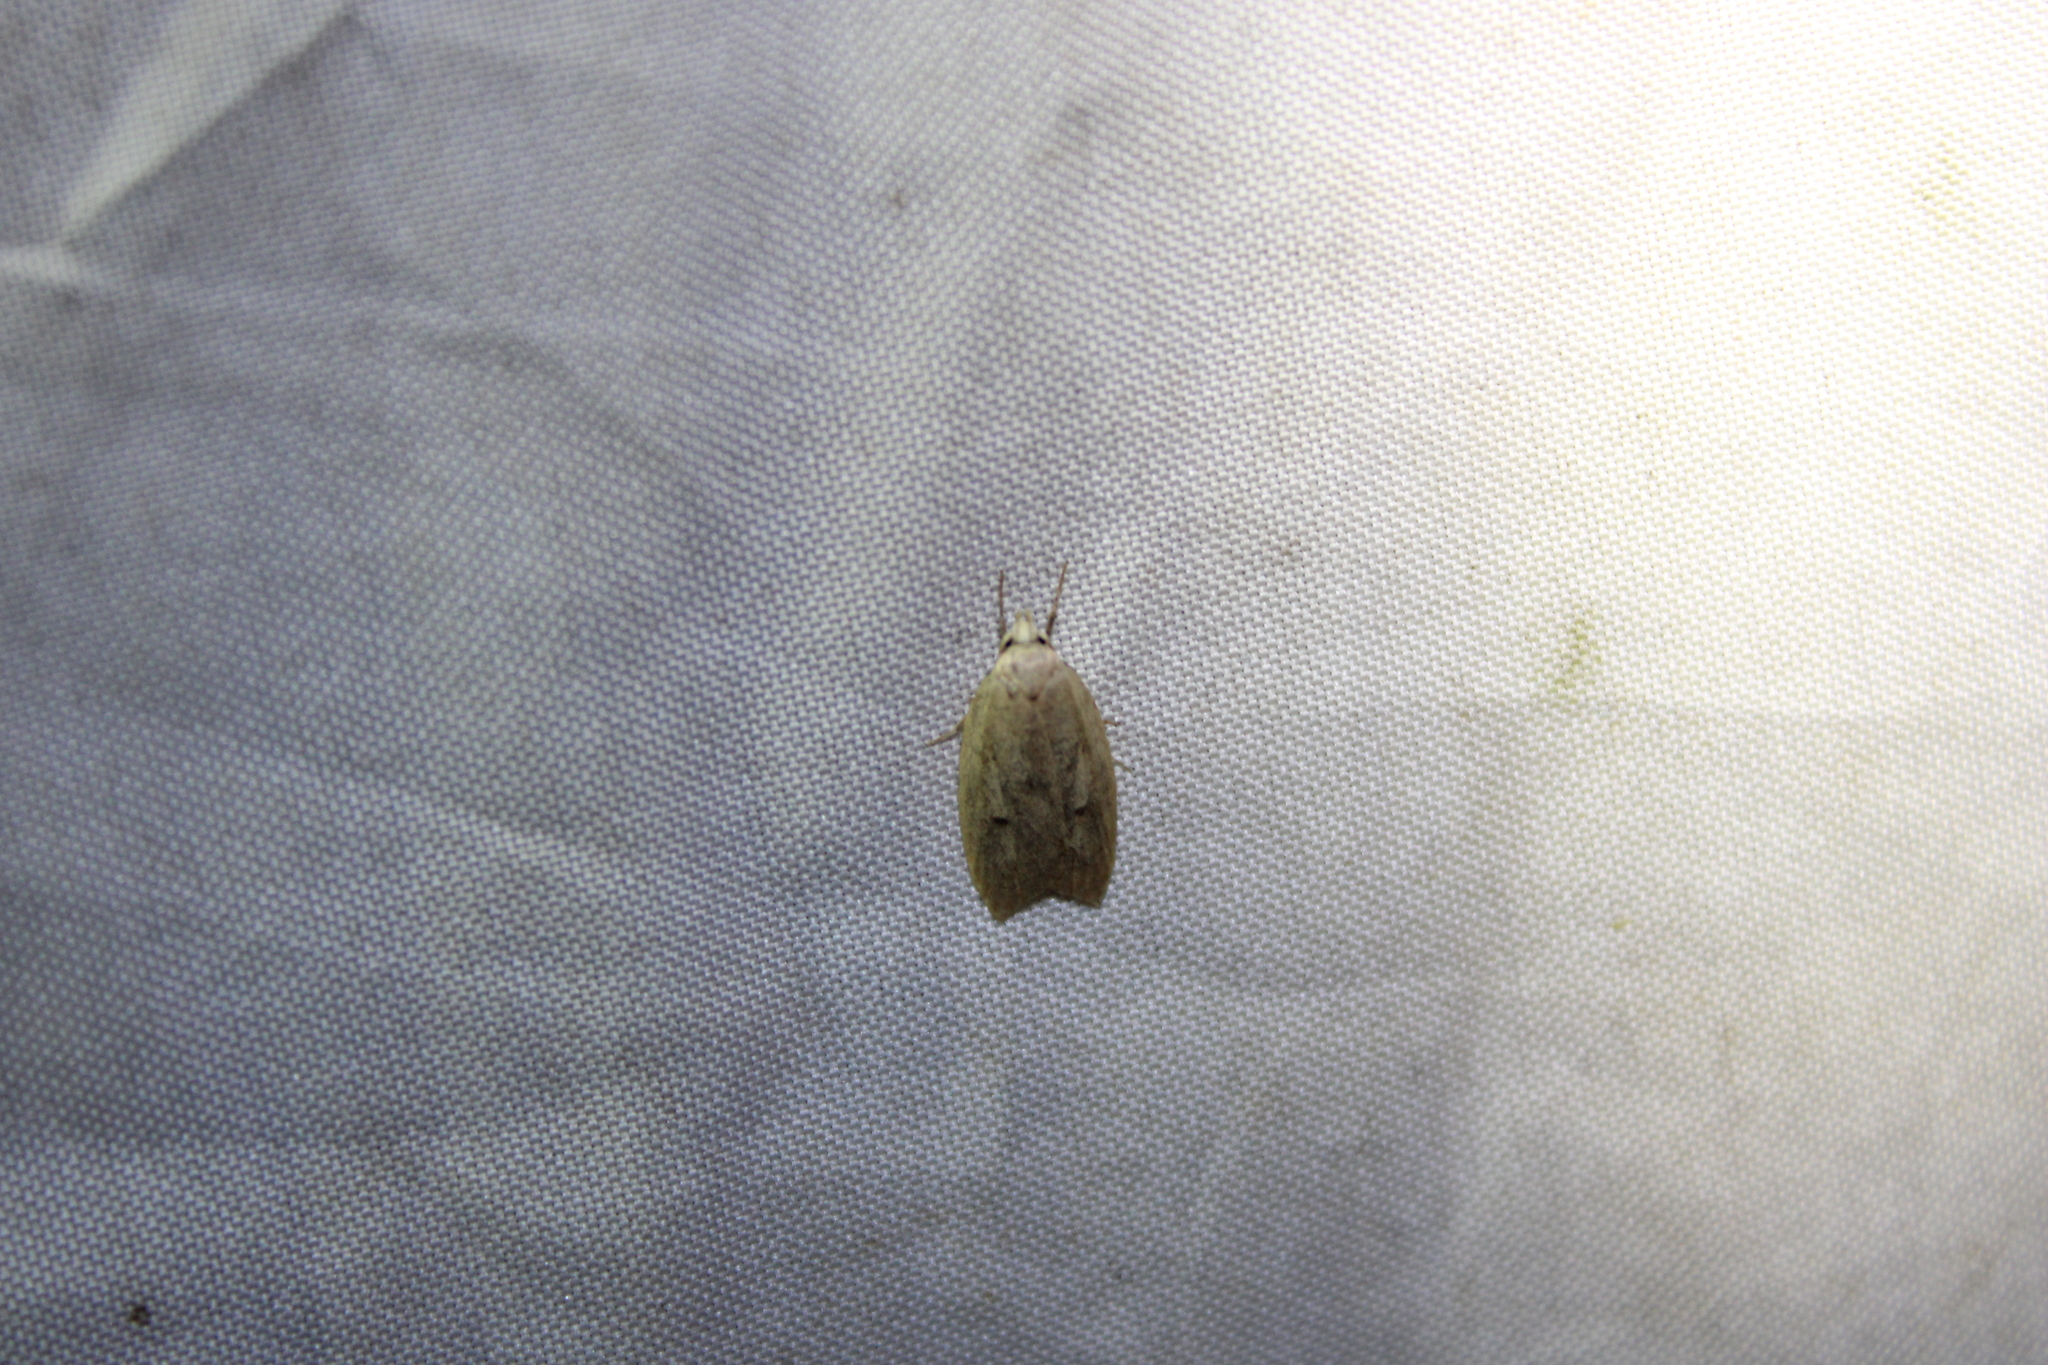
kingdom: Animalia
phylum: Arthropoda
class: Insecta
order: Lepidoptera
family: Peleopodidae
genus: Machimia
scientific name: Machimia tentoriferella
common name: Gold-striped leaftier moth
